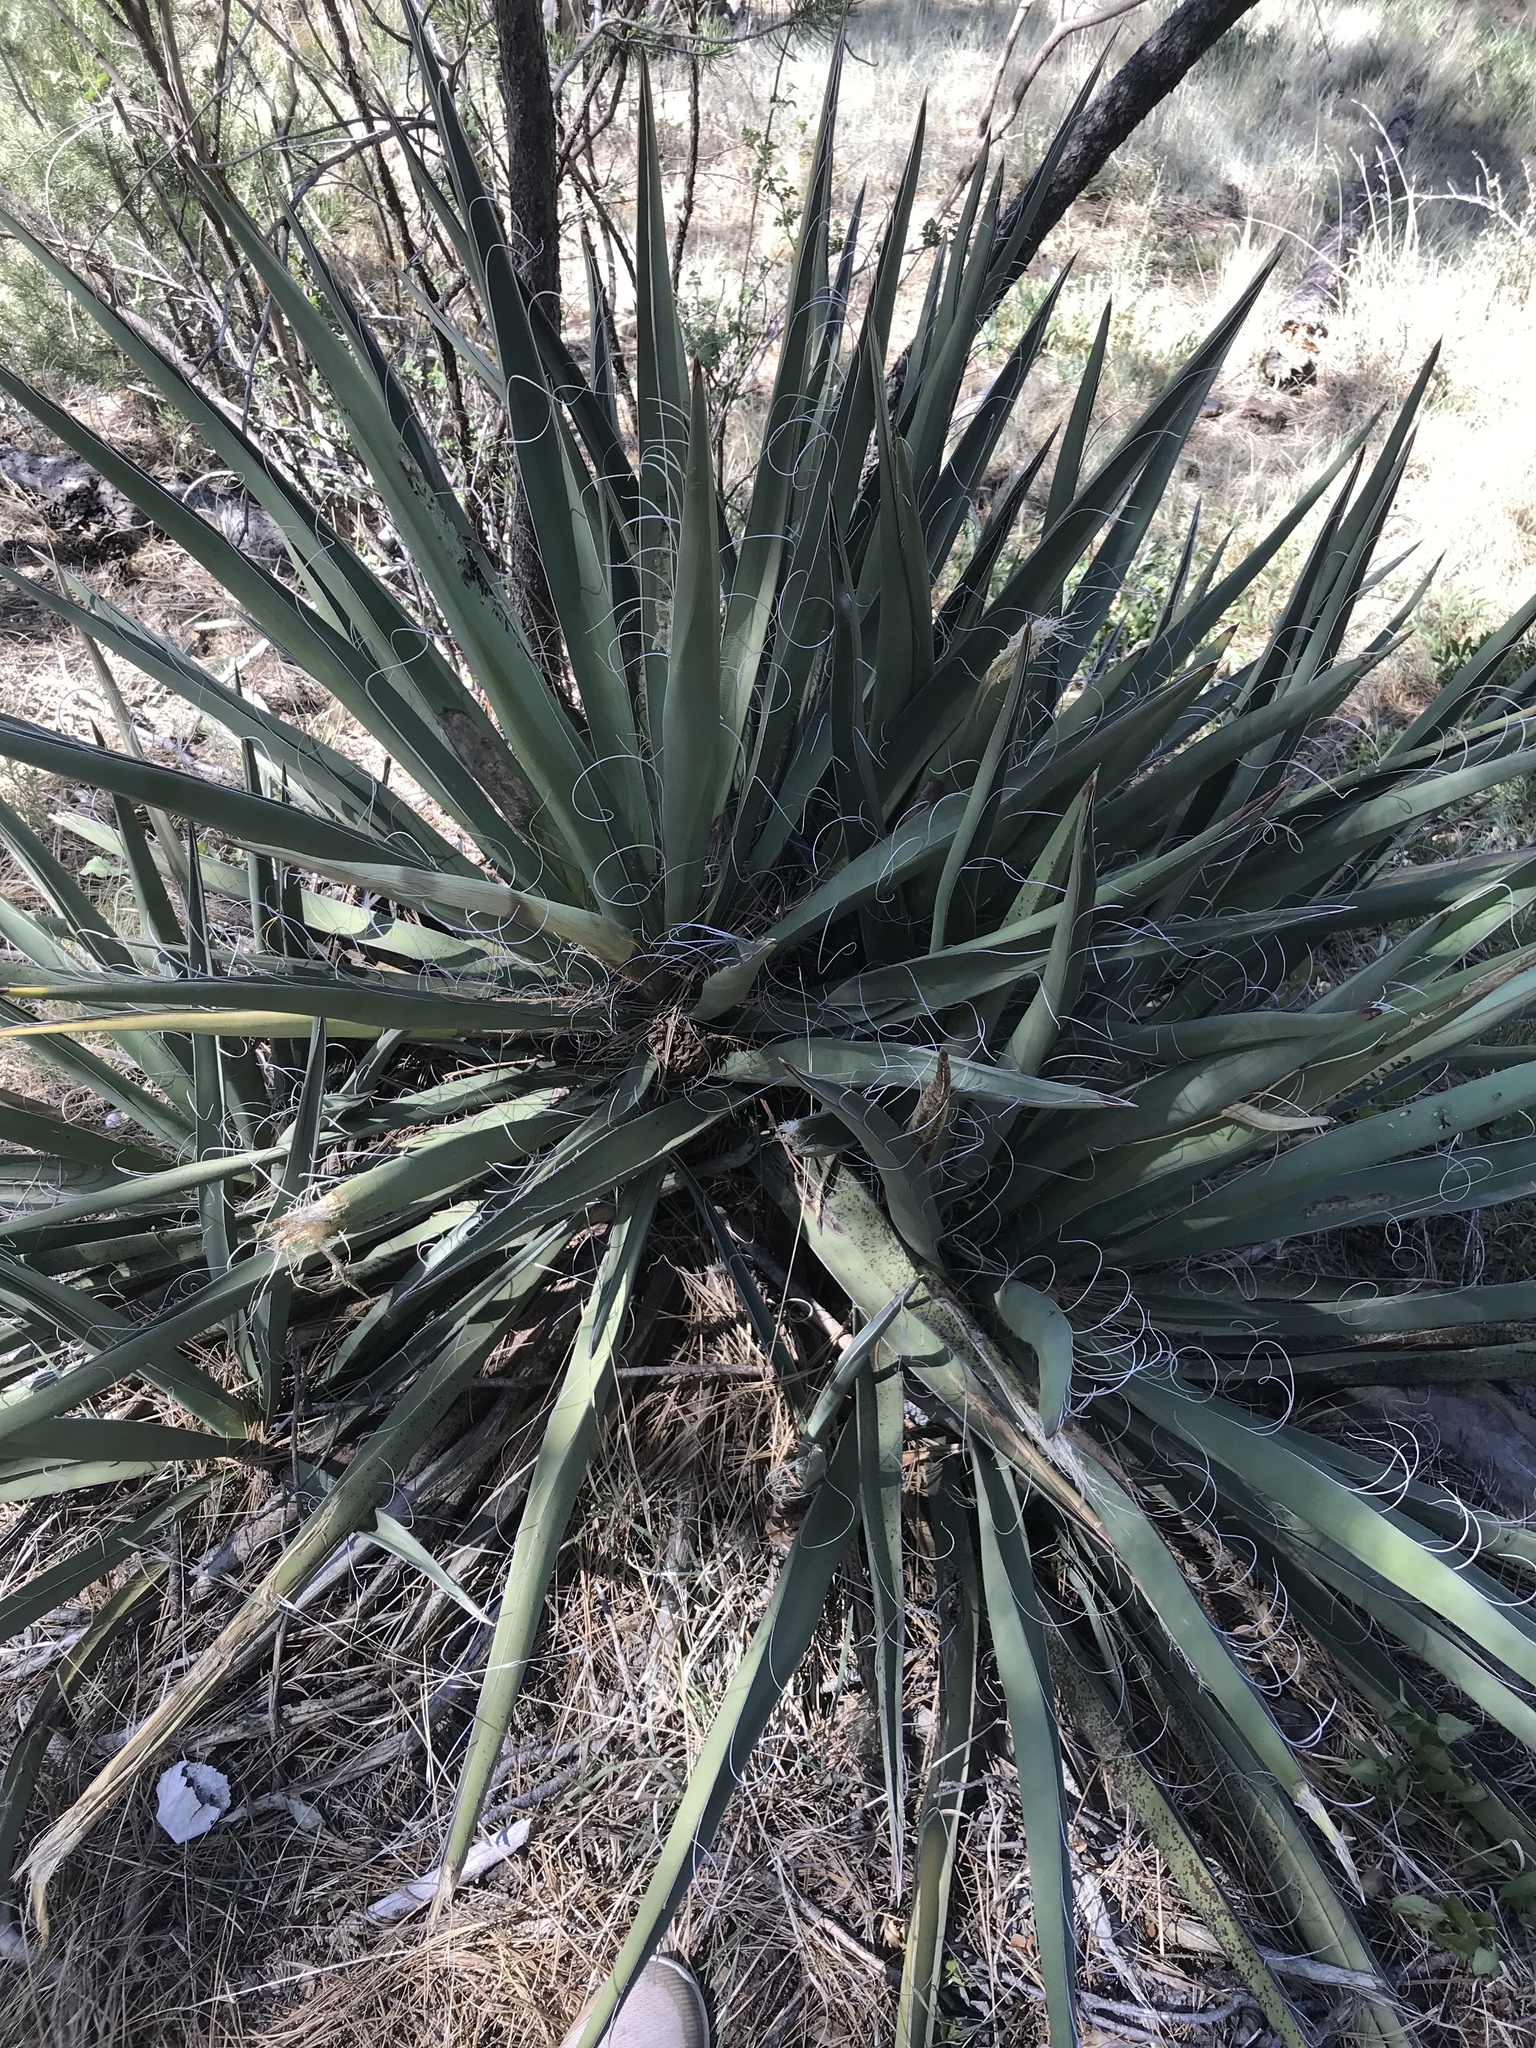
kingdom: Plantae
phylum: Tracheophyta
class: Liliopsida
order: Asparagales
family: Asparagaceae
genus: Yucca
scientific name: Yucca baccata
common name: Banana yucca
